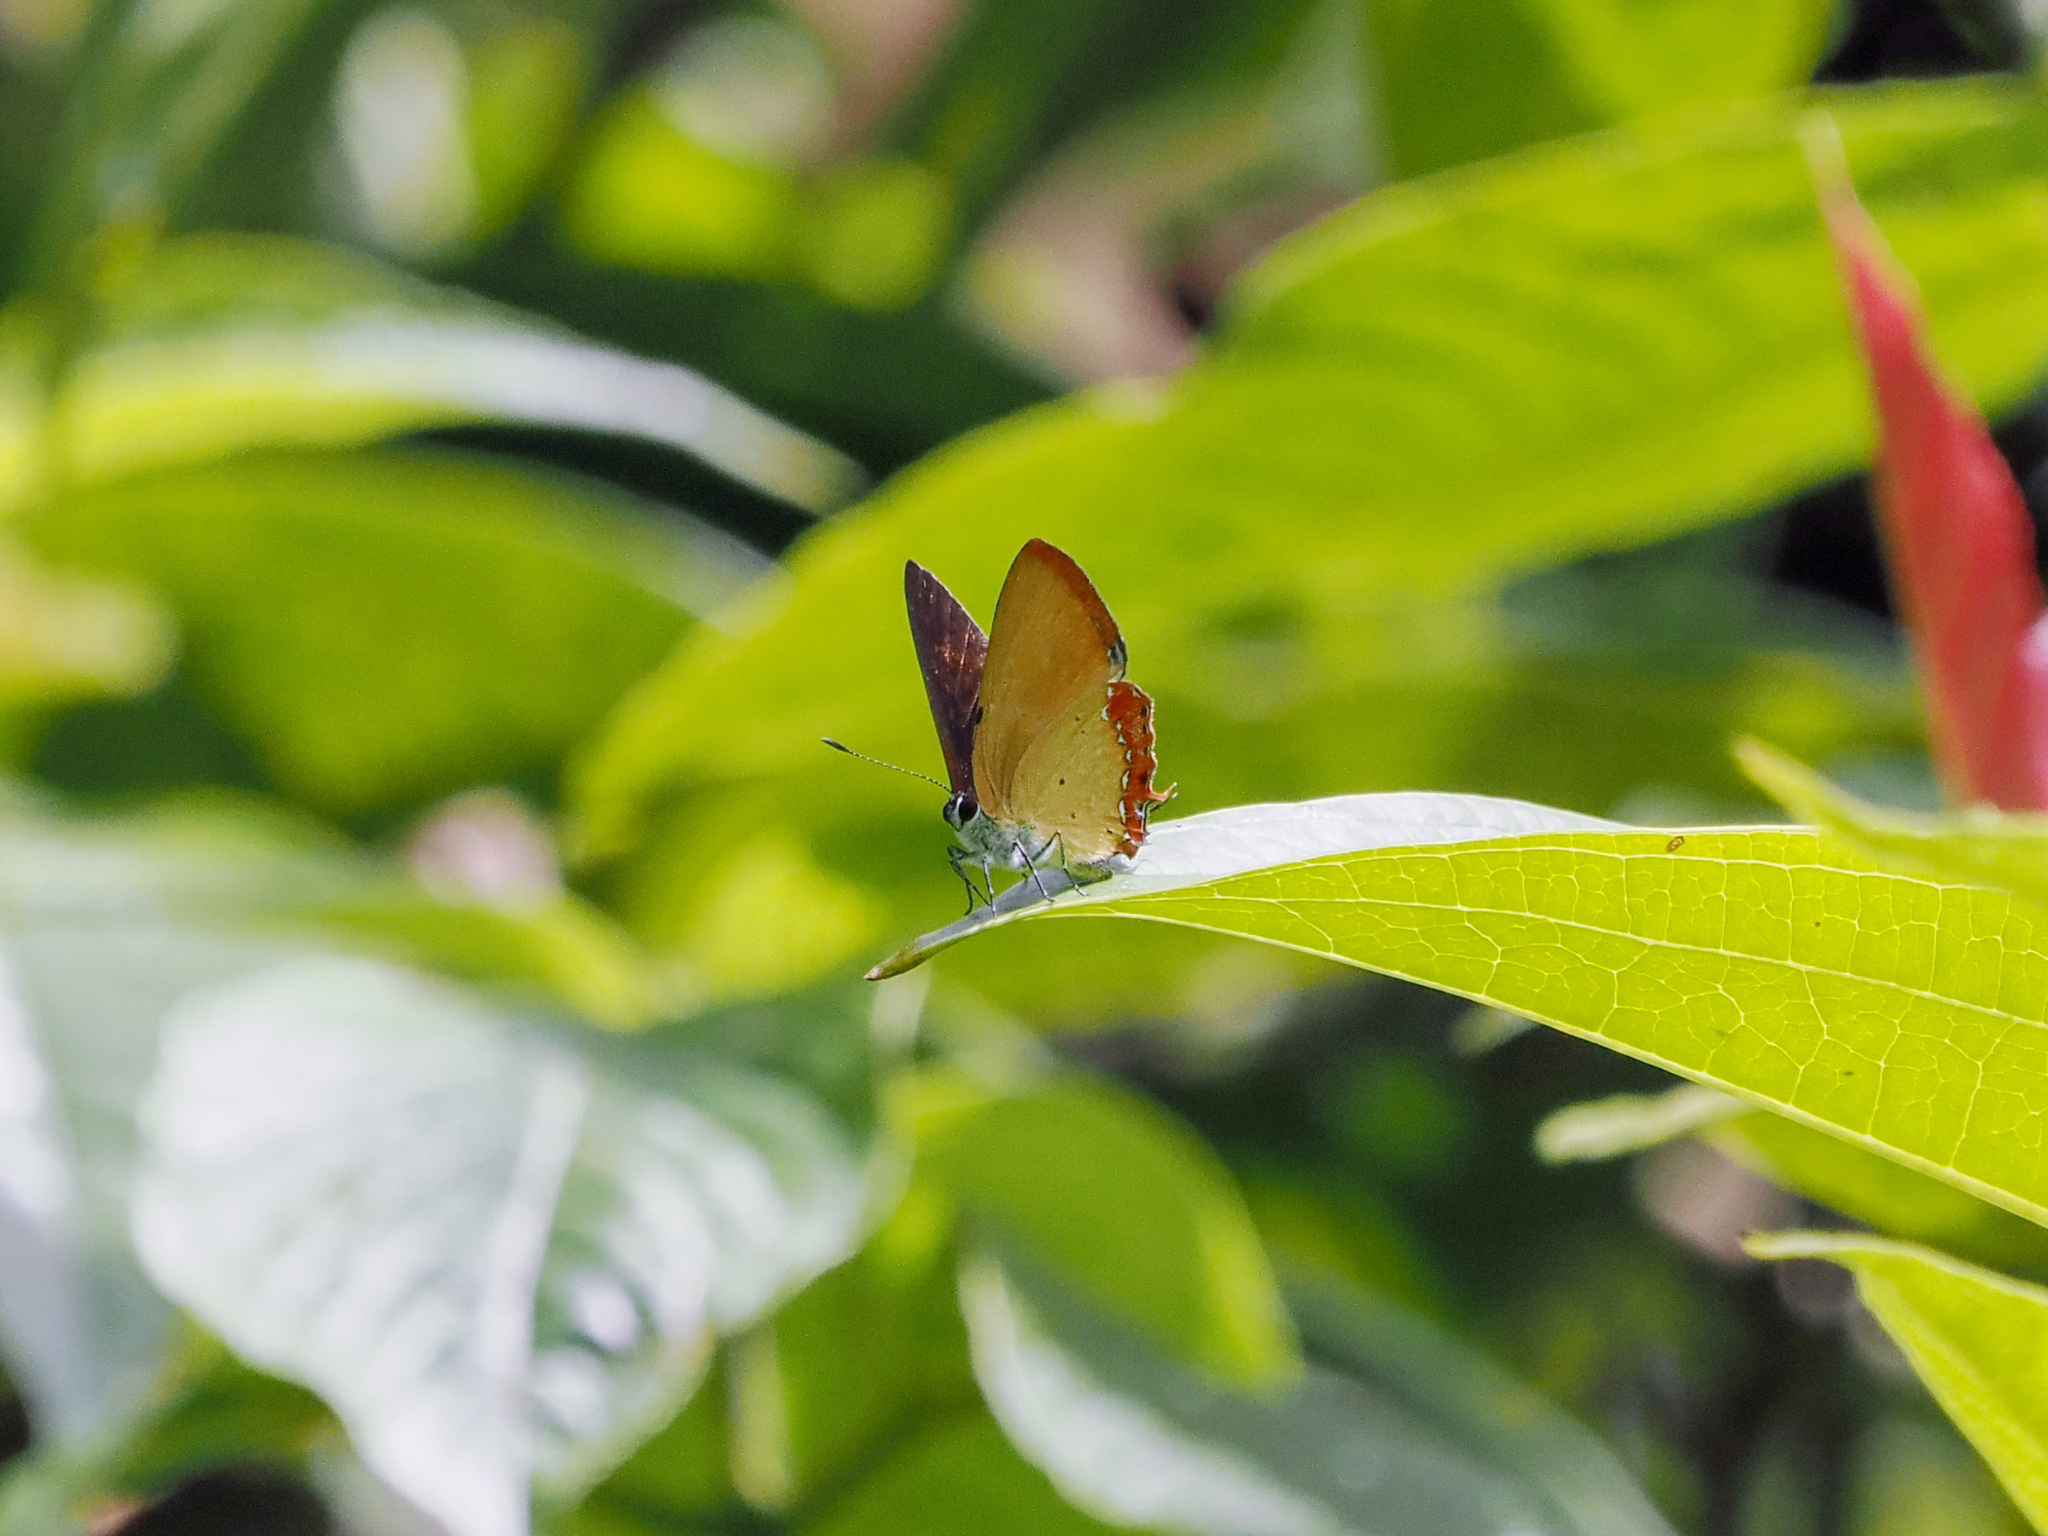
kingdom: Animalia
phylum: Arthropoda
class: Insecta
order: Lepidoptera
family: Lycaenidae
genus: Heliophorus
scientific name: Heliophorus ila
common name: Restricted purple sapphire
